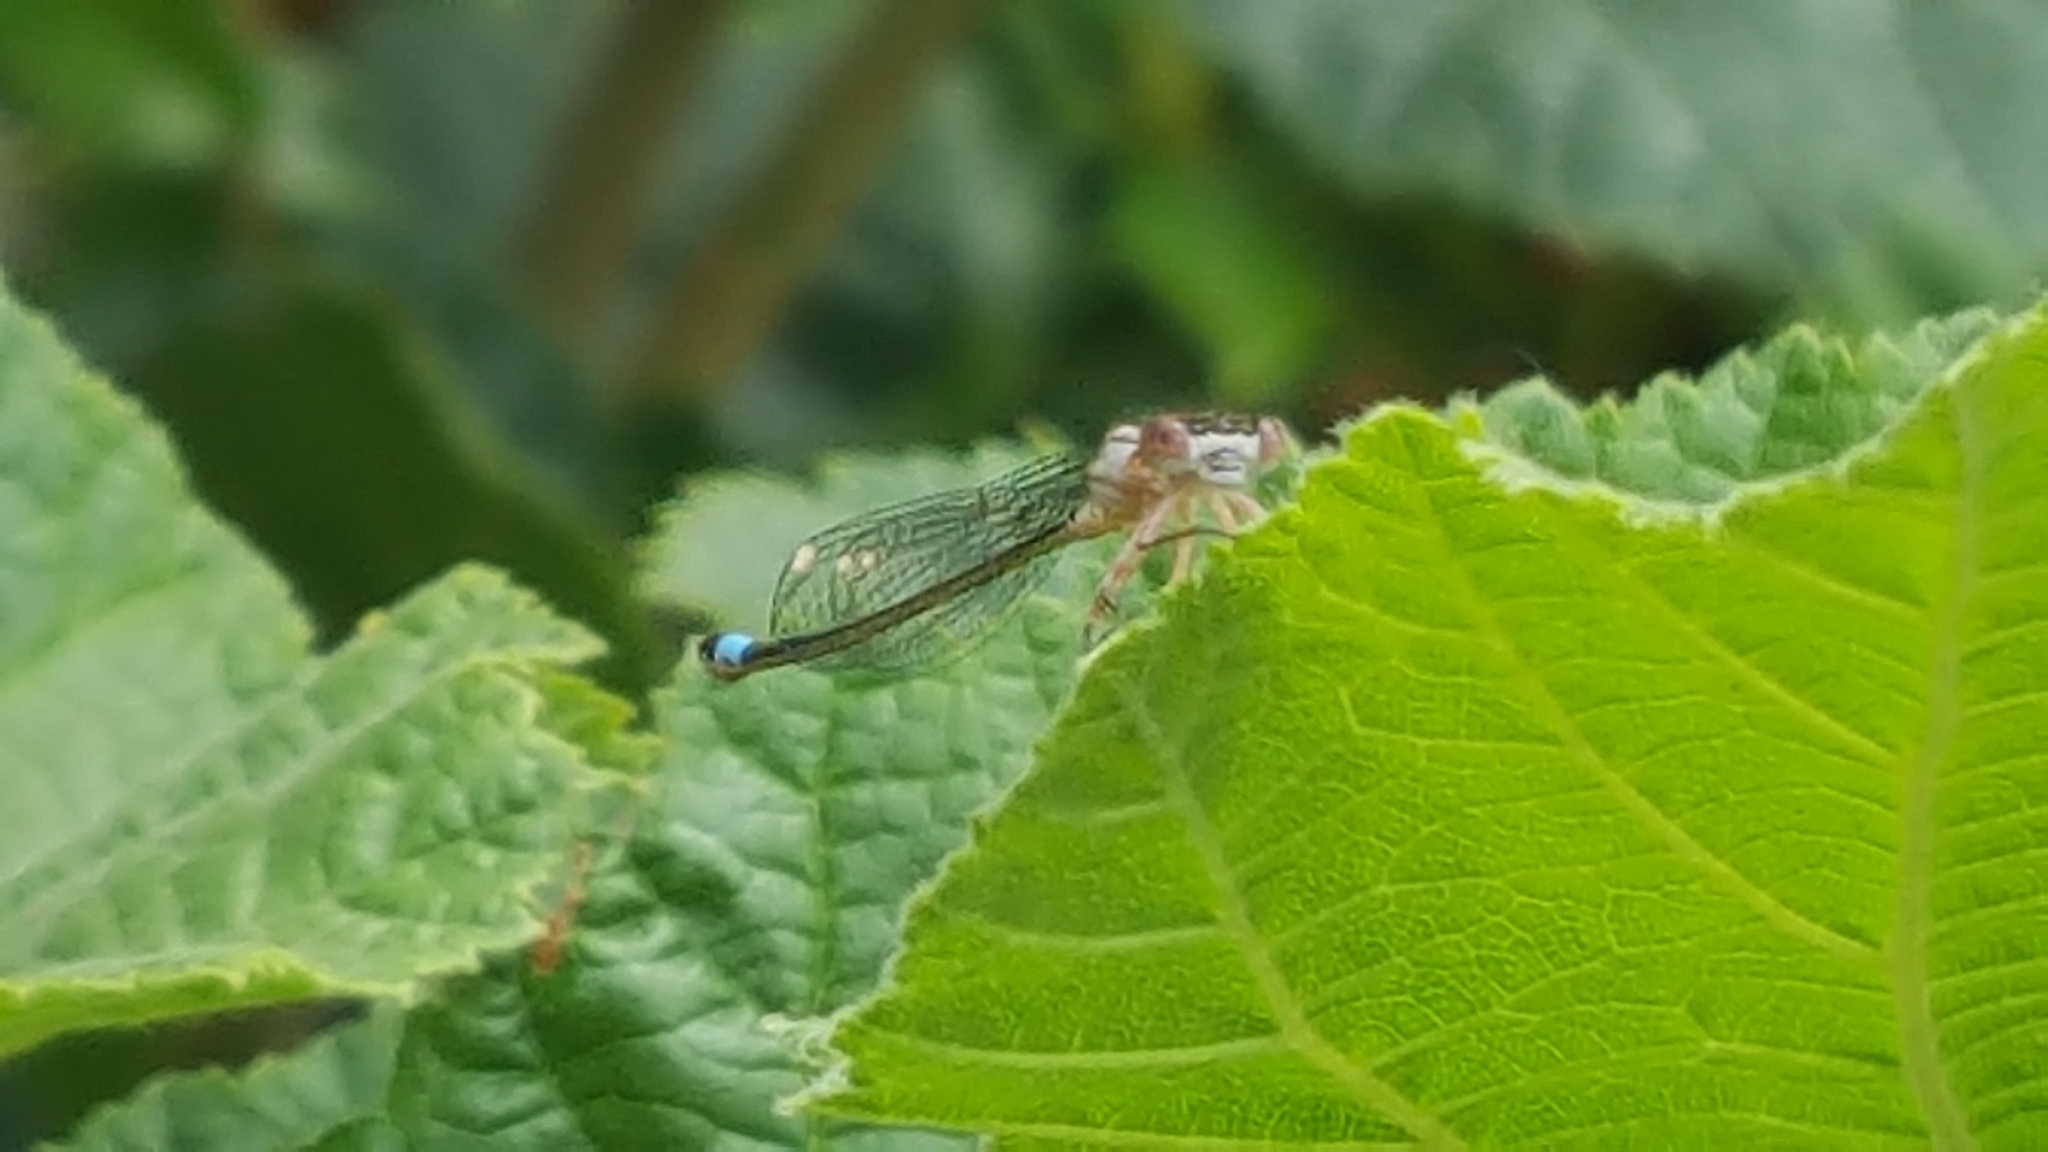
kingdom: Animalia
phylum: Arthropoda
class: Insecta
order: Odonata
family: Coenagrionidae
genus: Ischnura
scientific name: Ischnura cervula
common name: Pacific forktail
